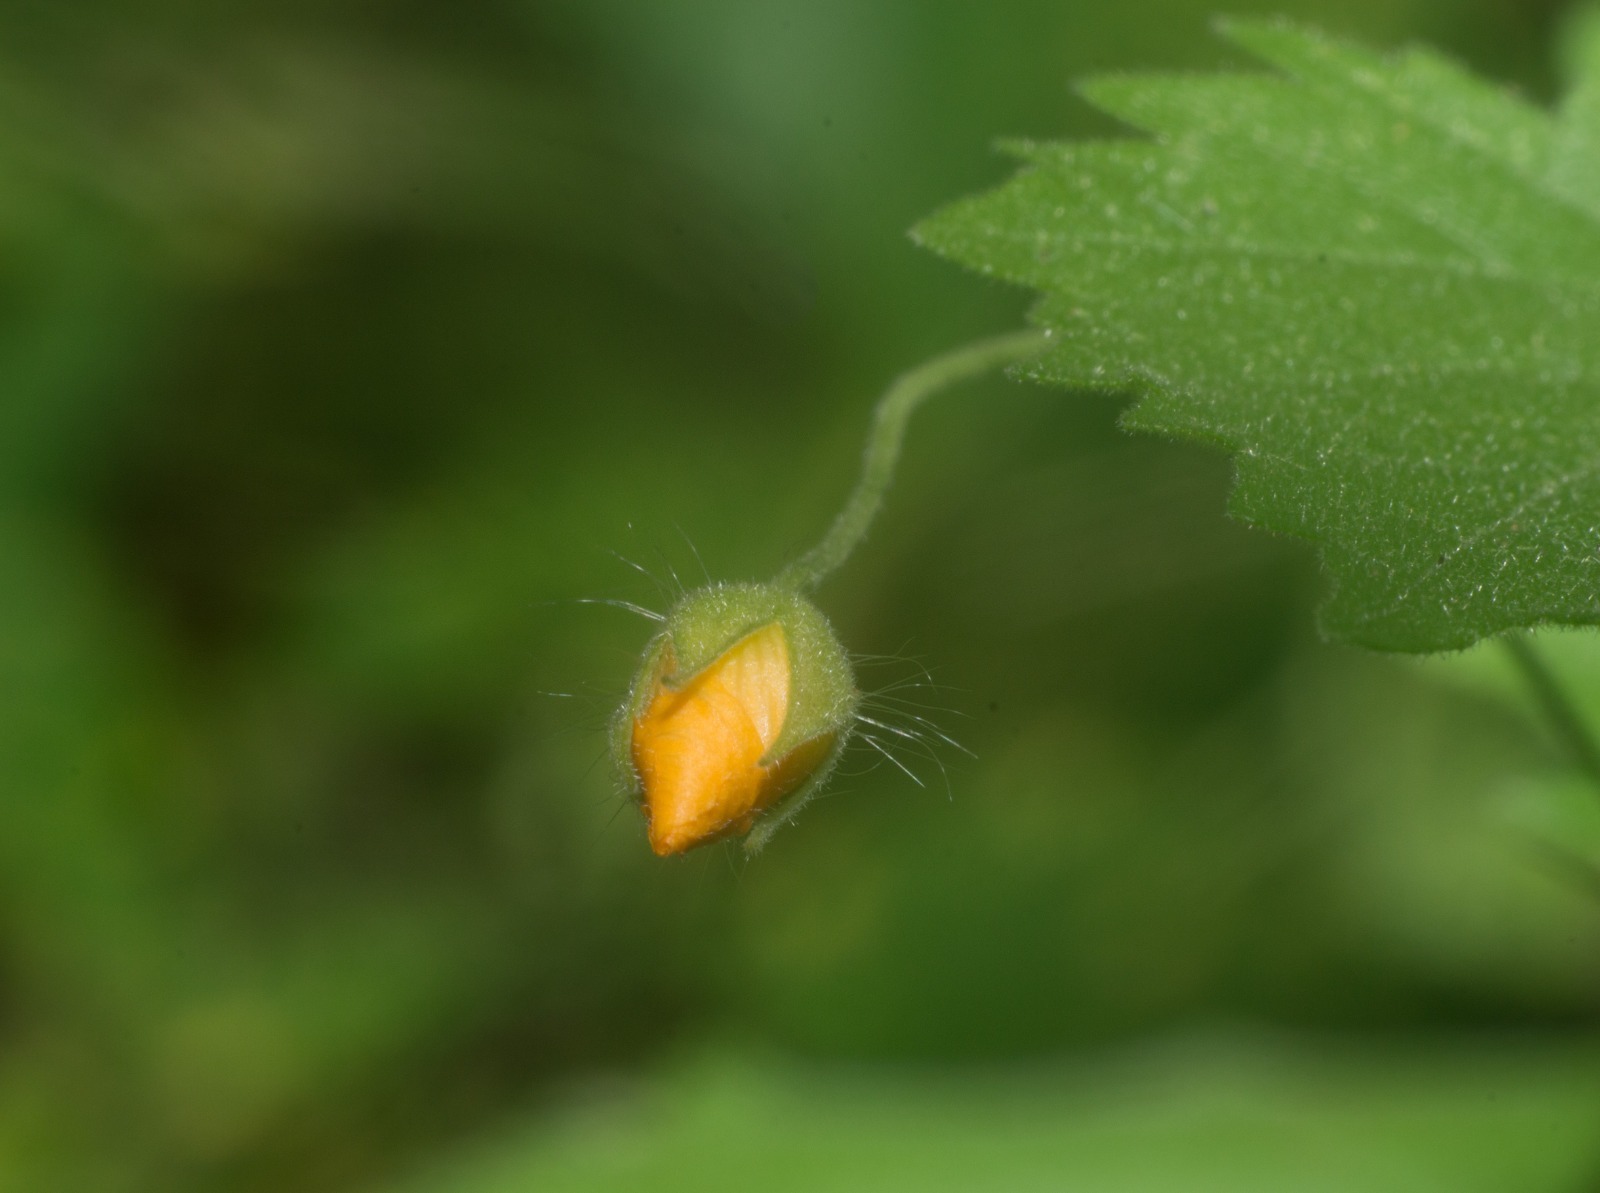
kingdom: Plantae
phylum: Tracheophyta
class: Magnoliopsida
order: Malvales
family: Malvaceae
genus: Pseudabutilon
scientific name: Pseudabutilon virgatum
